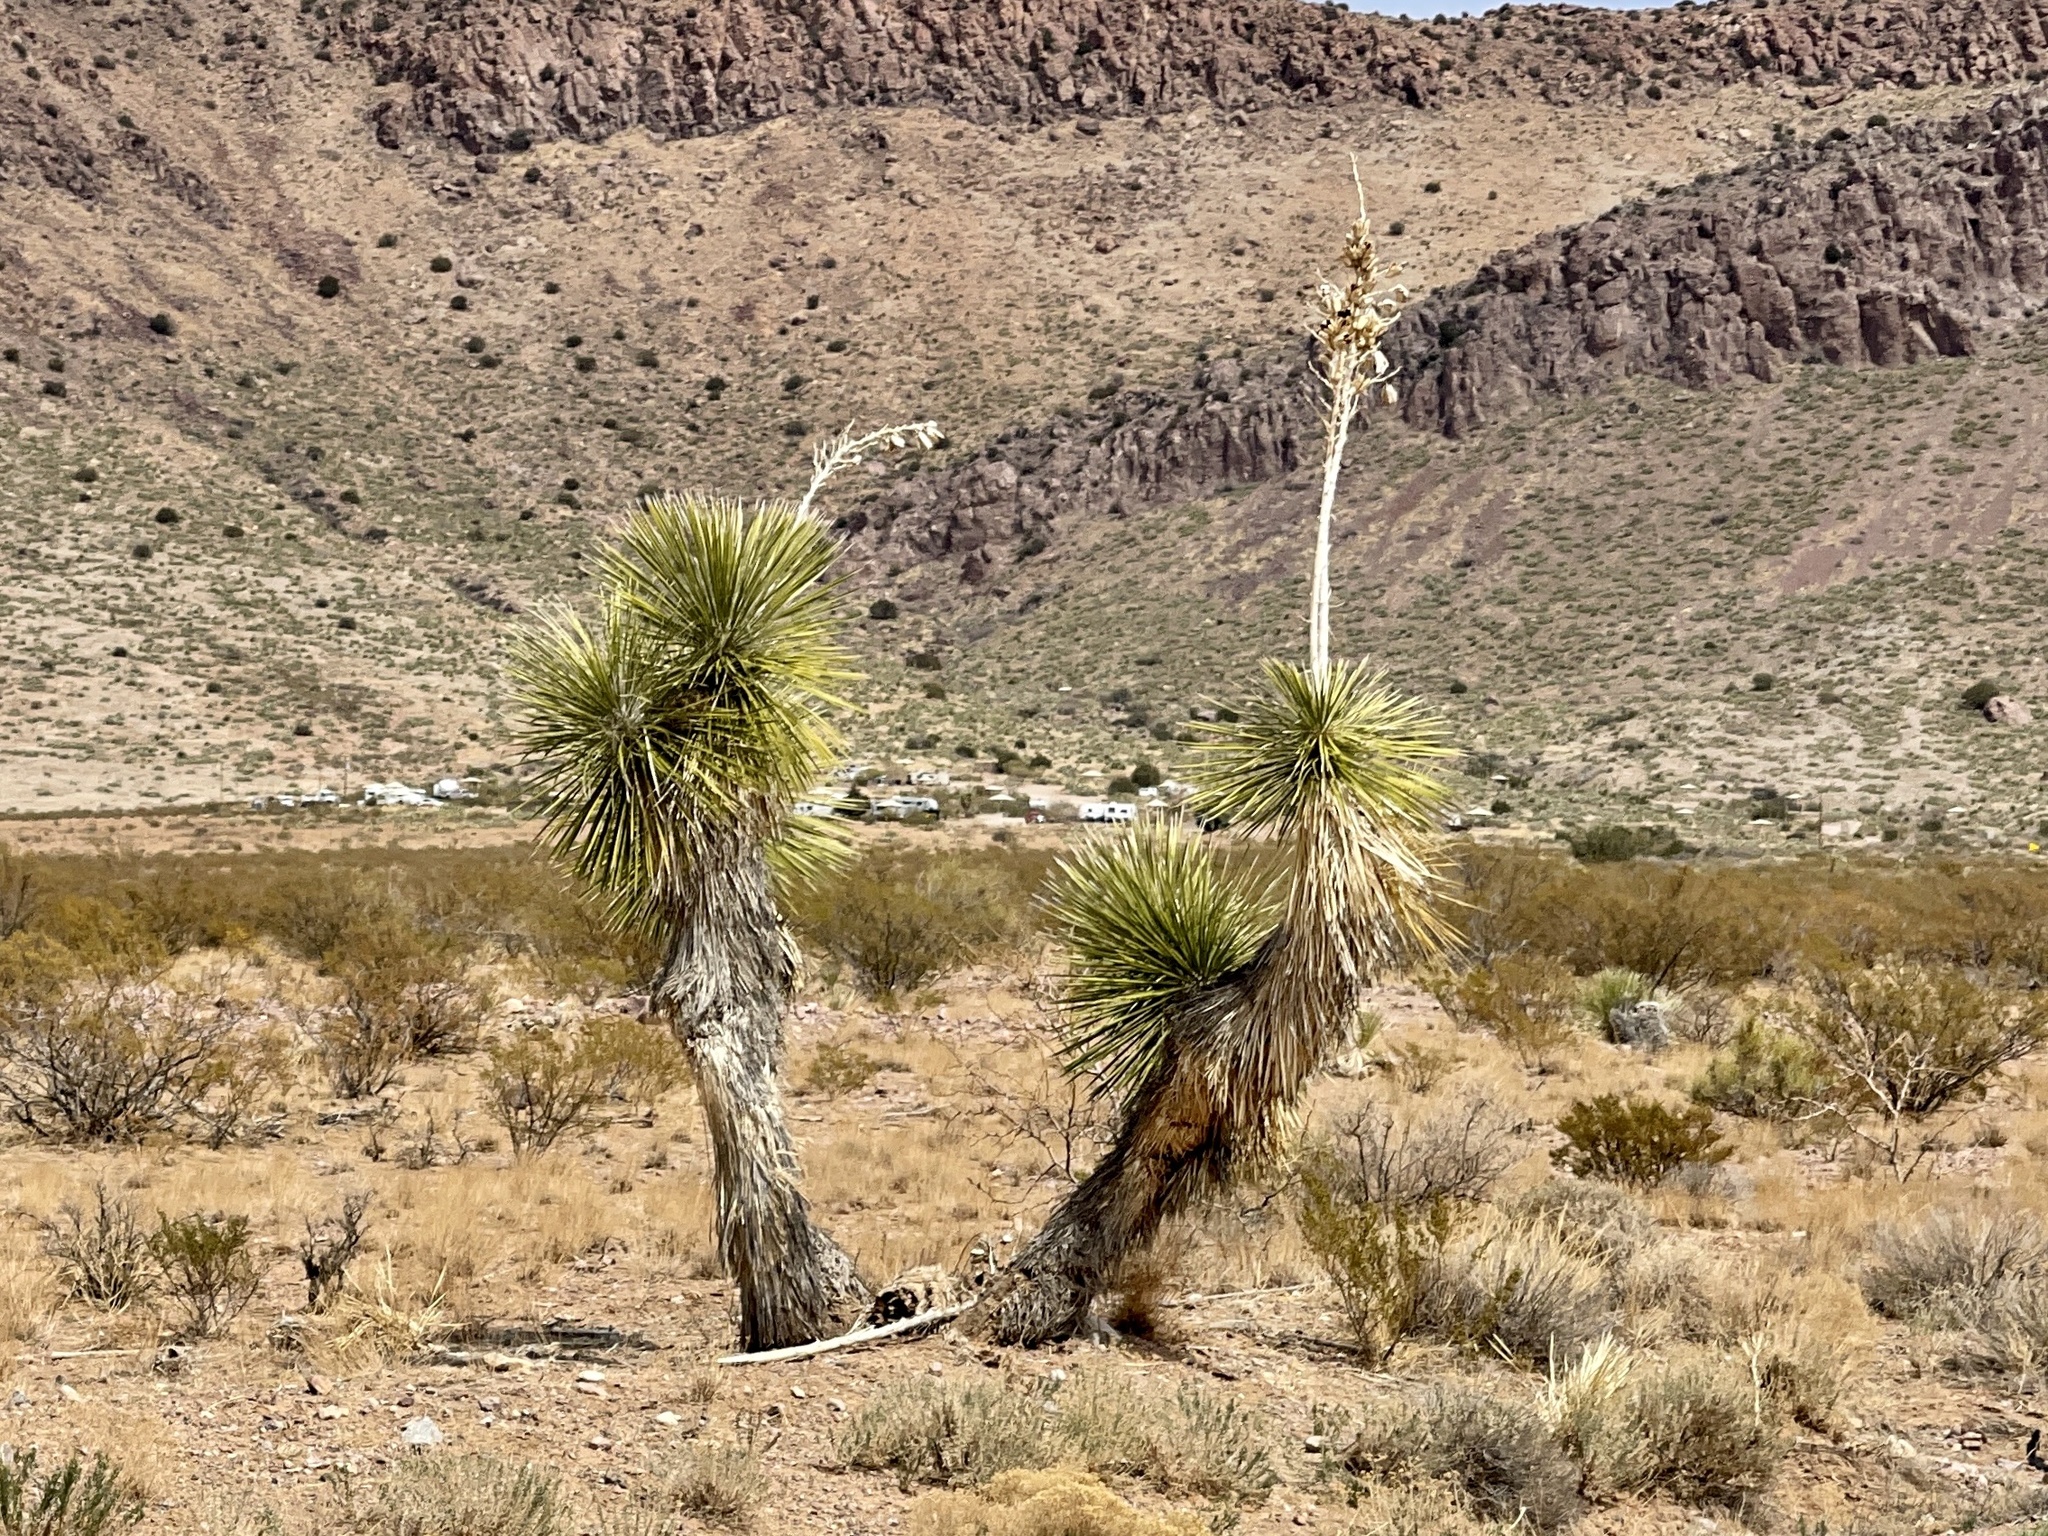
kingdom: Plantae
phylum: Tracheophyta
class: Liliopsida
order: Asparagales
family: Asparagaceae
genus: Yucca
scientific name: Yucca elata
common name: Palmella
